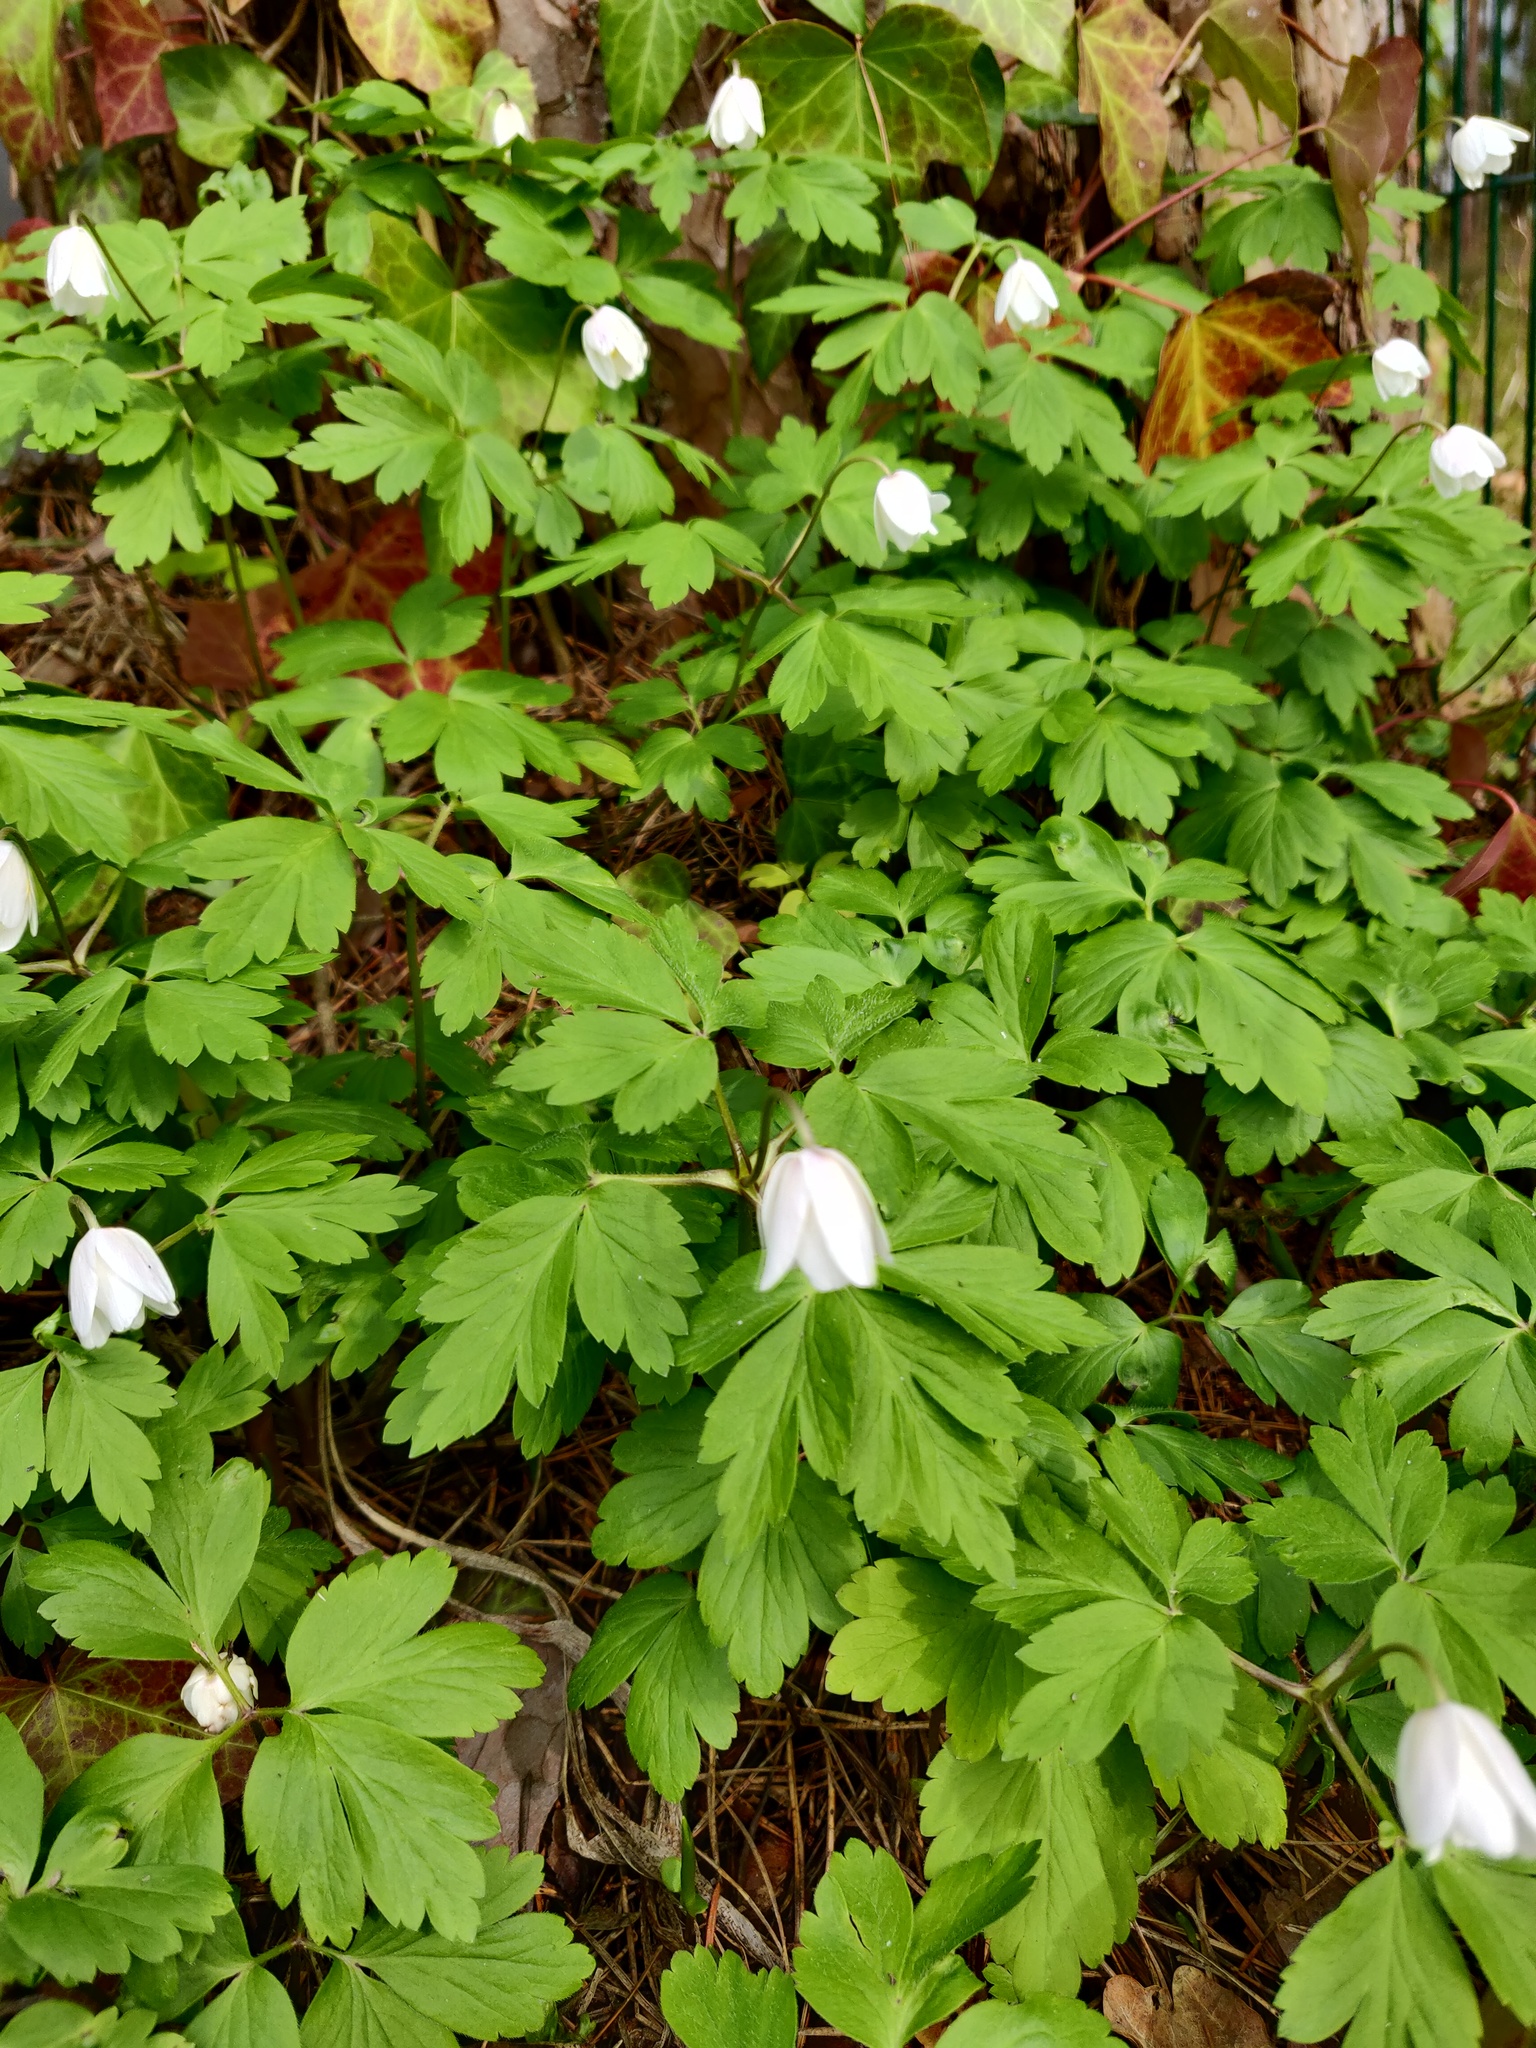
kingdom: Plantae
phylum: Tracheophyta
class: Magnoliopsida
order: Ranunculales
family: Ranunculaceae
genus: Anemone
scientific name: Anemone nemorosa
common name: Wood anemone
